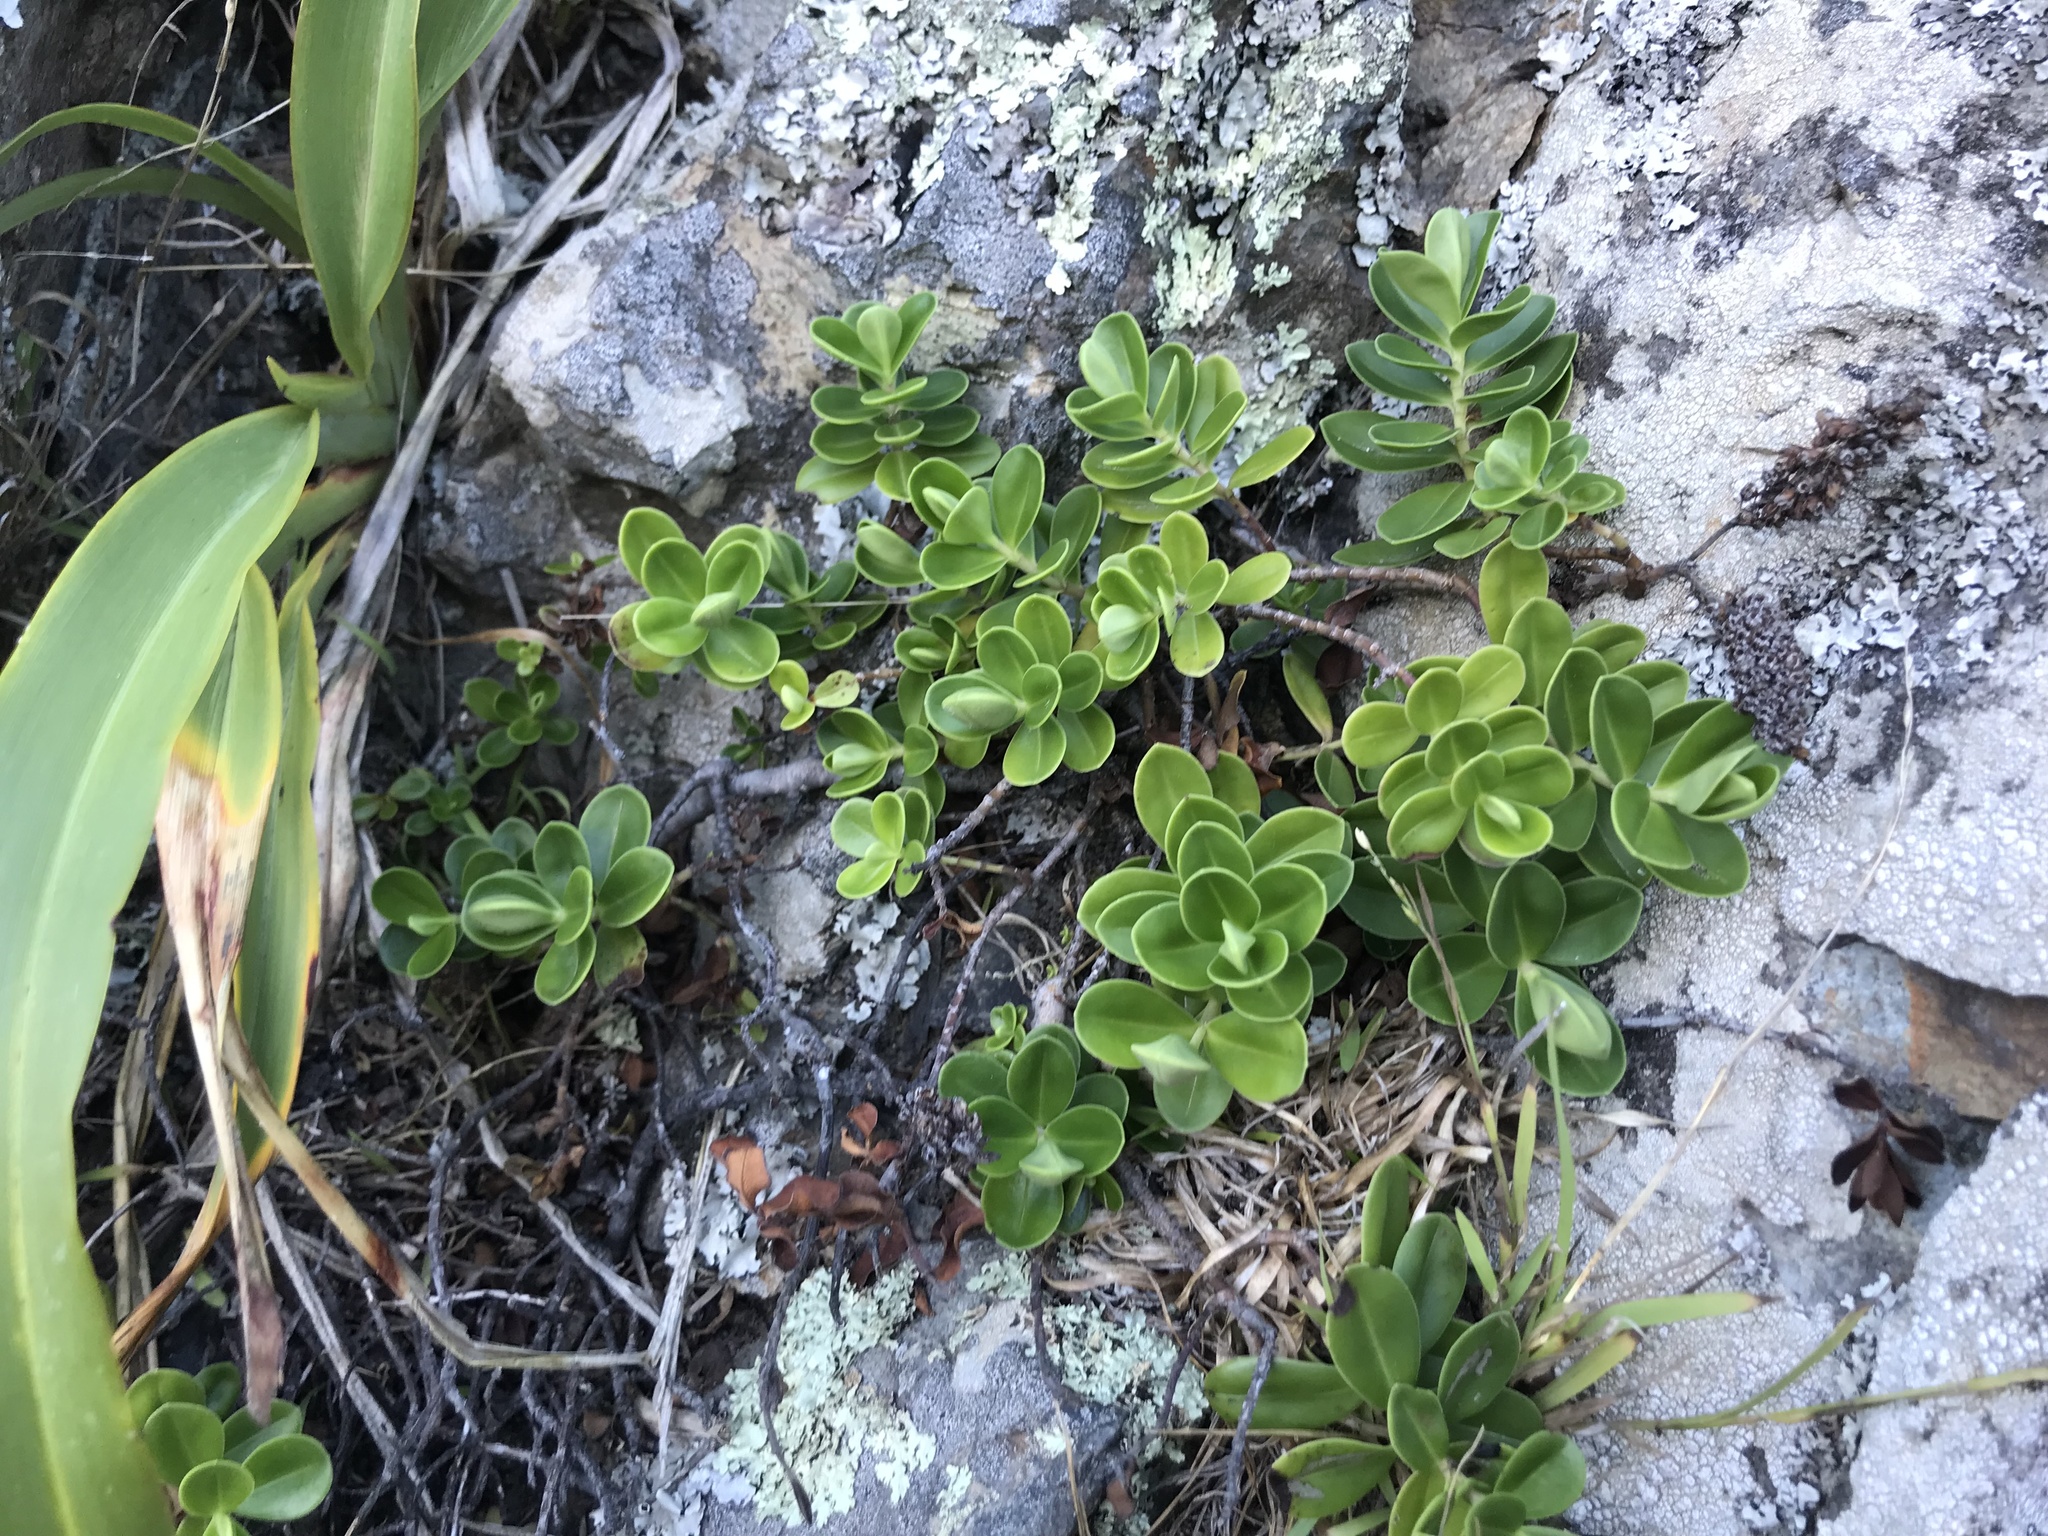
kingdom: Plantae
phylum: Tracheophyta
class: Magnoliopsida
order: Lamiales
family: Plantaginaceae
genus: Veronica
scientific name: Veronica elliptica
